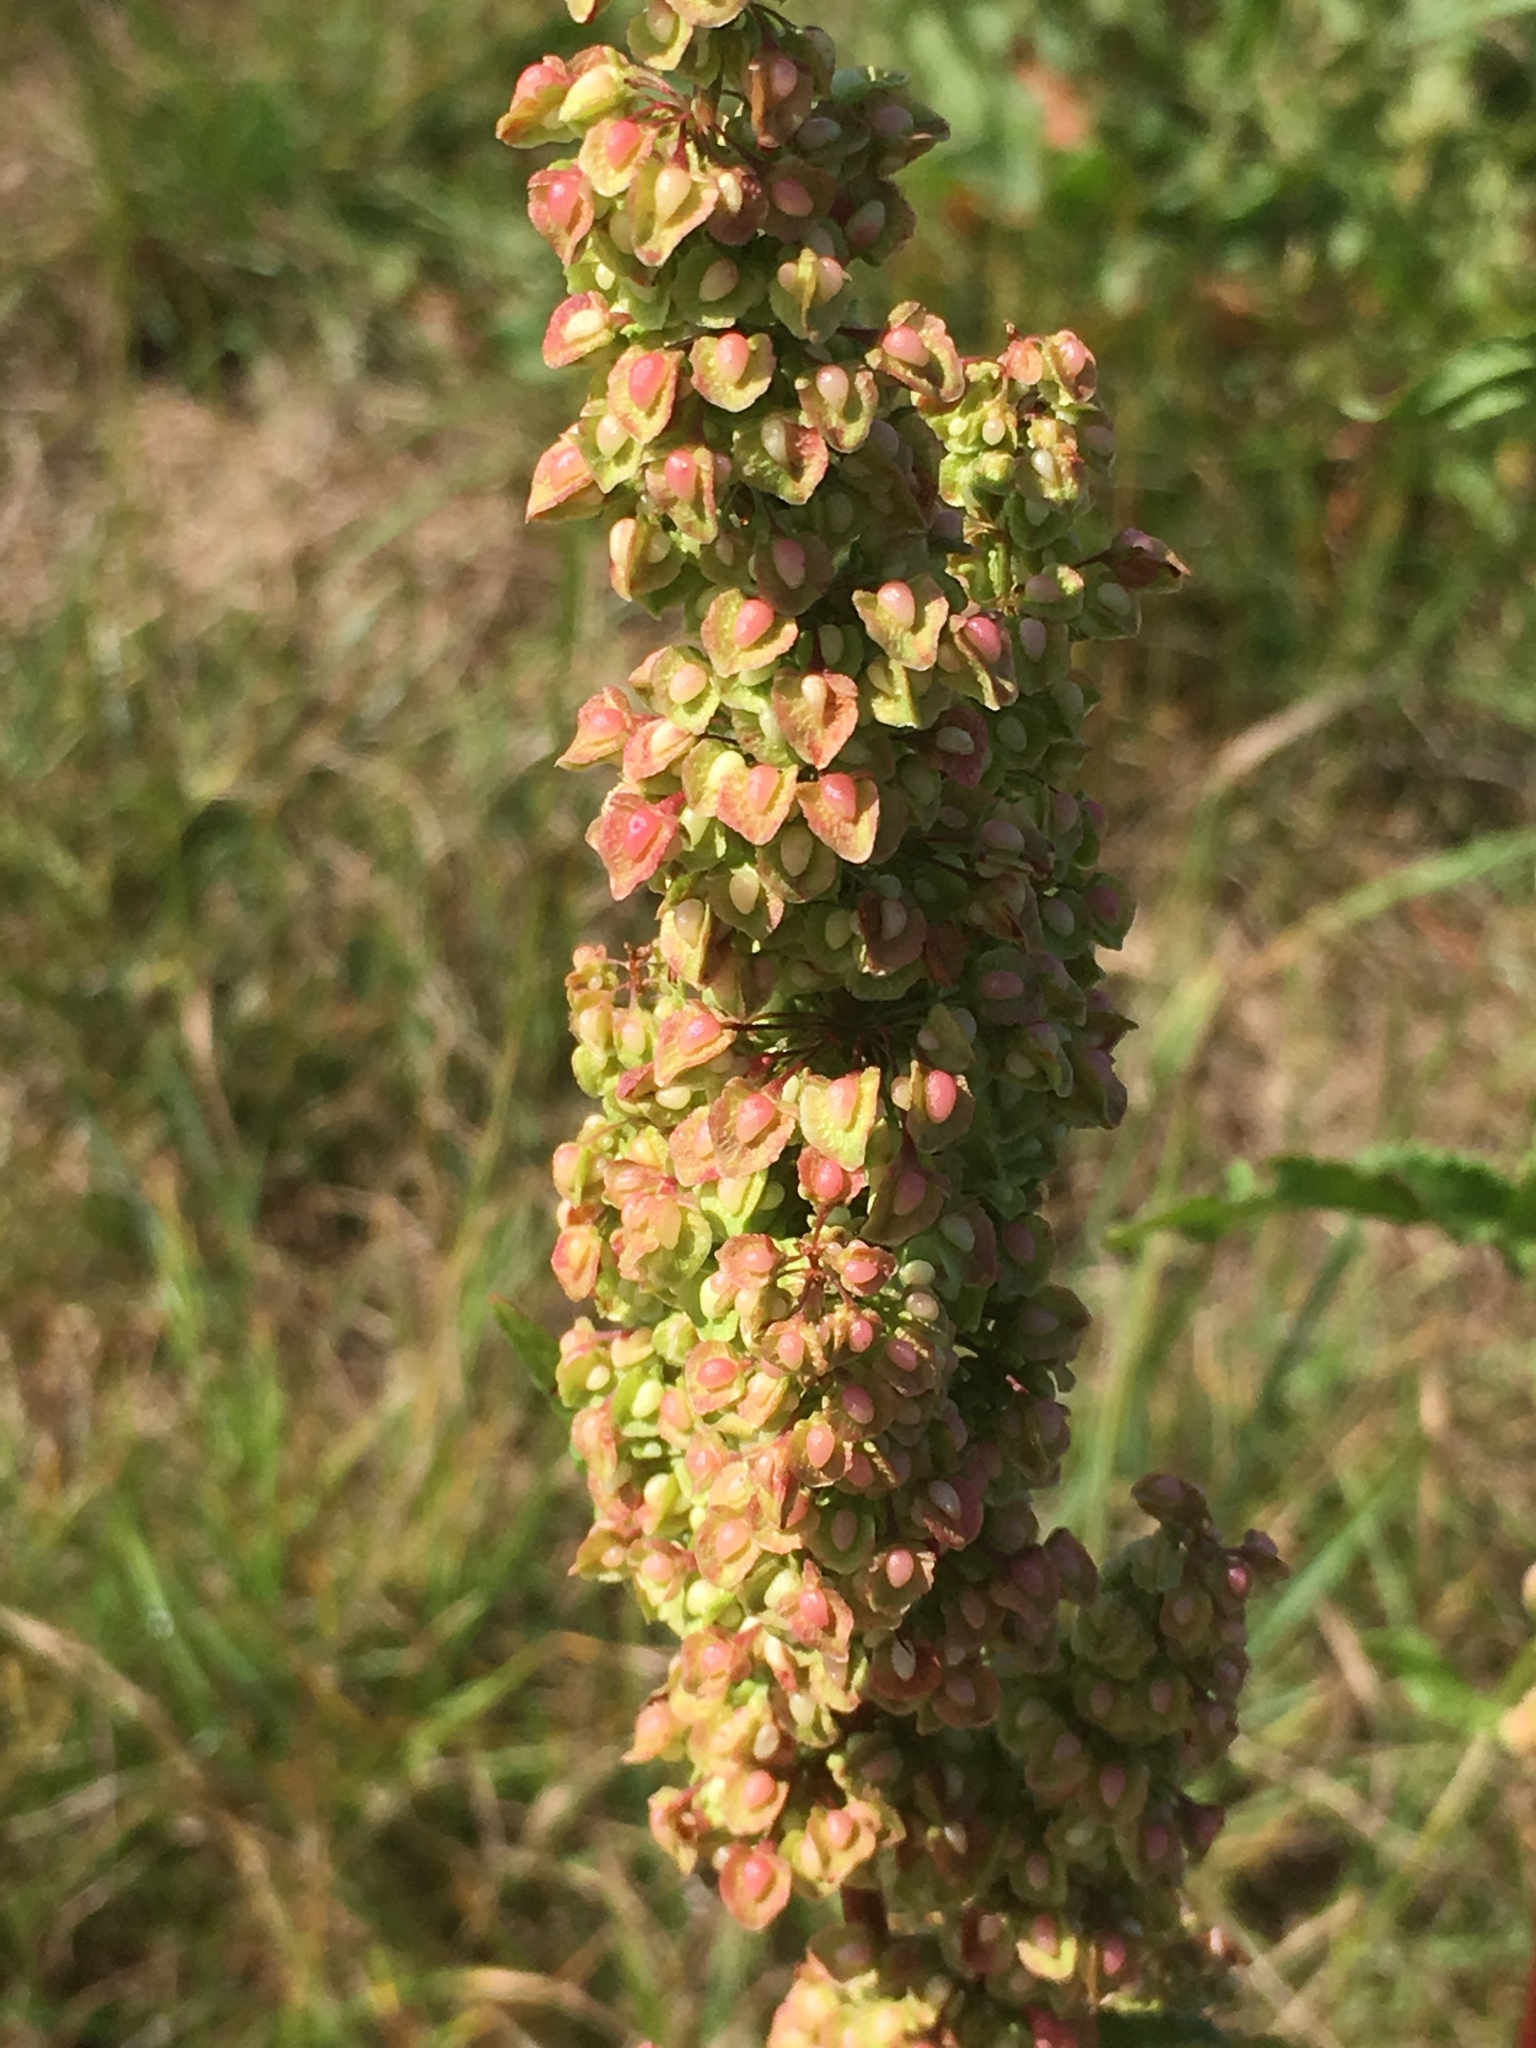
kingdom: Plantae
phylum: Tracheophyta
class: Magnoliopsida
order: Caryophyllales
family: Polygonaceae
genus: Rumex
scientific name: Rumex crispus
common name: Curled dock
